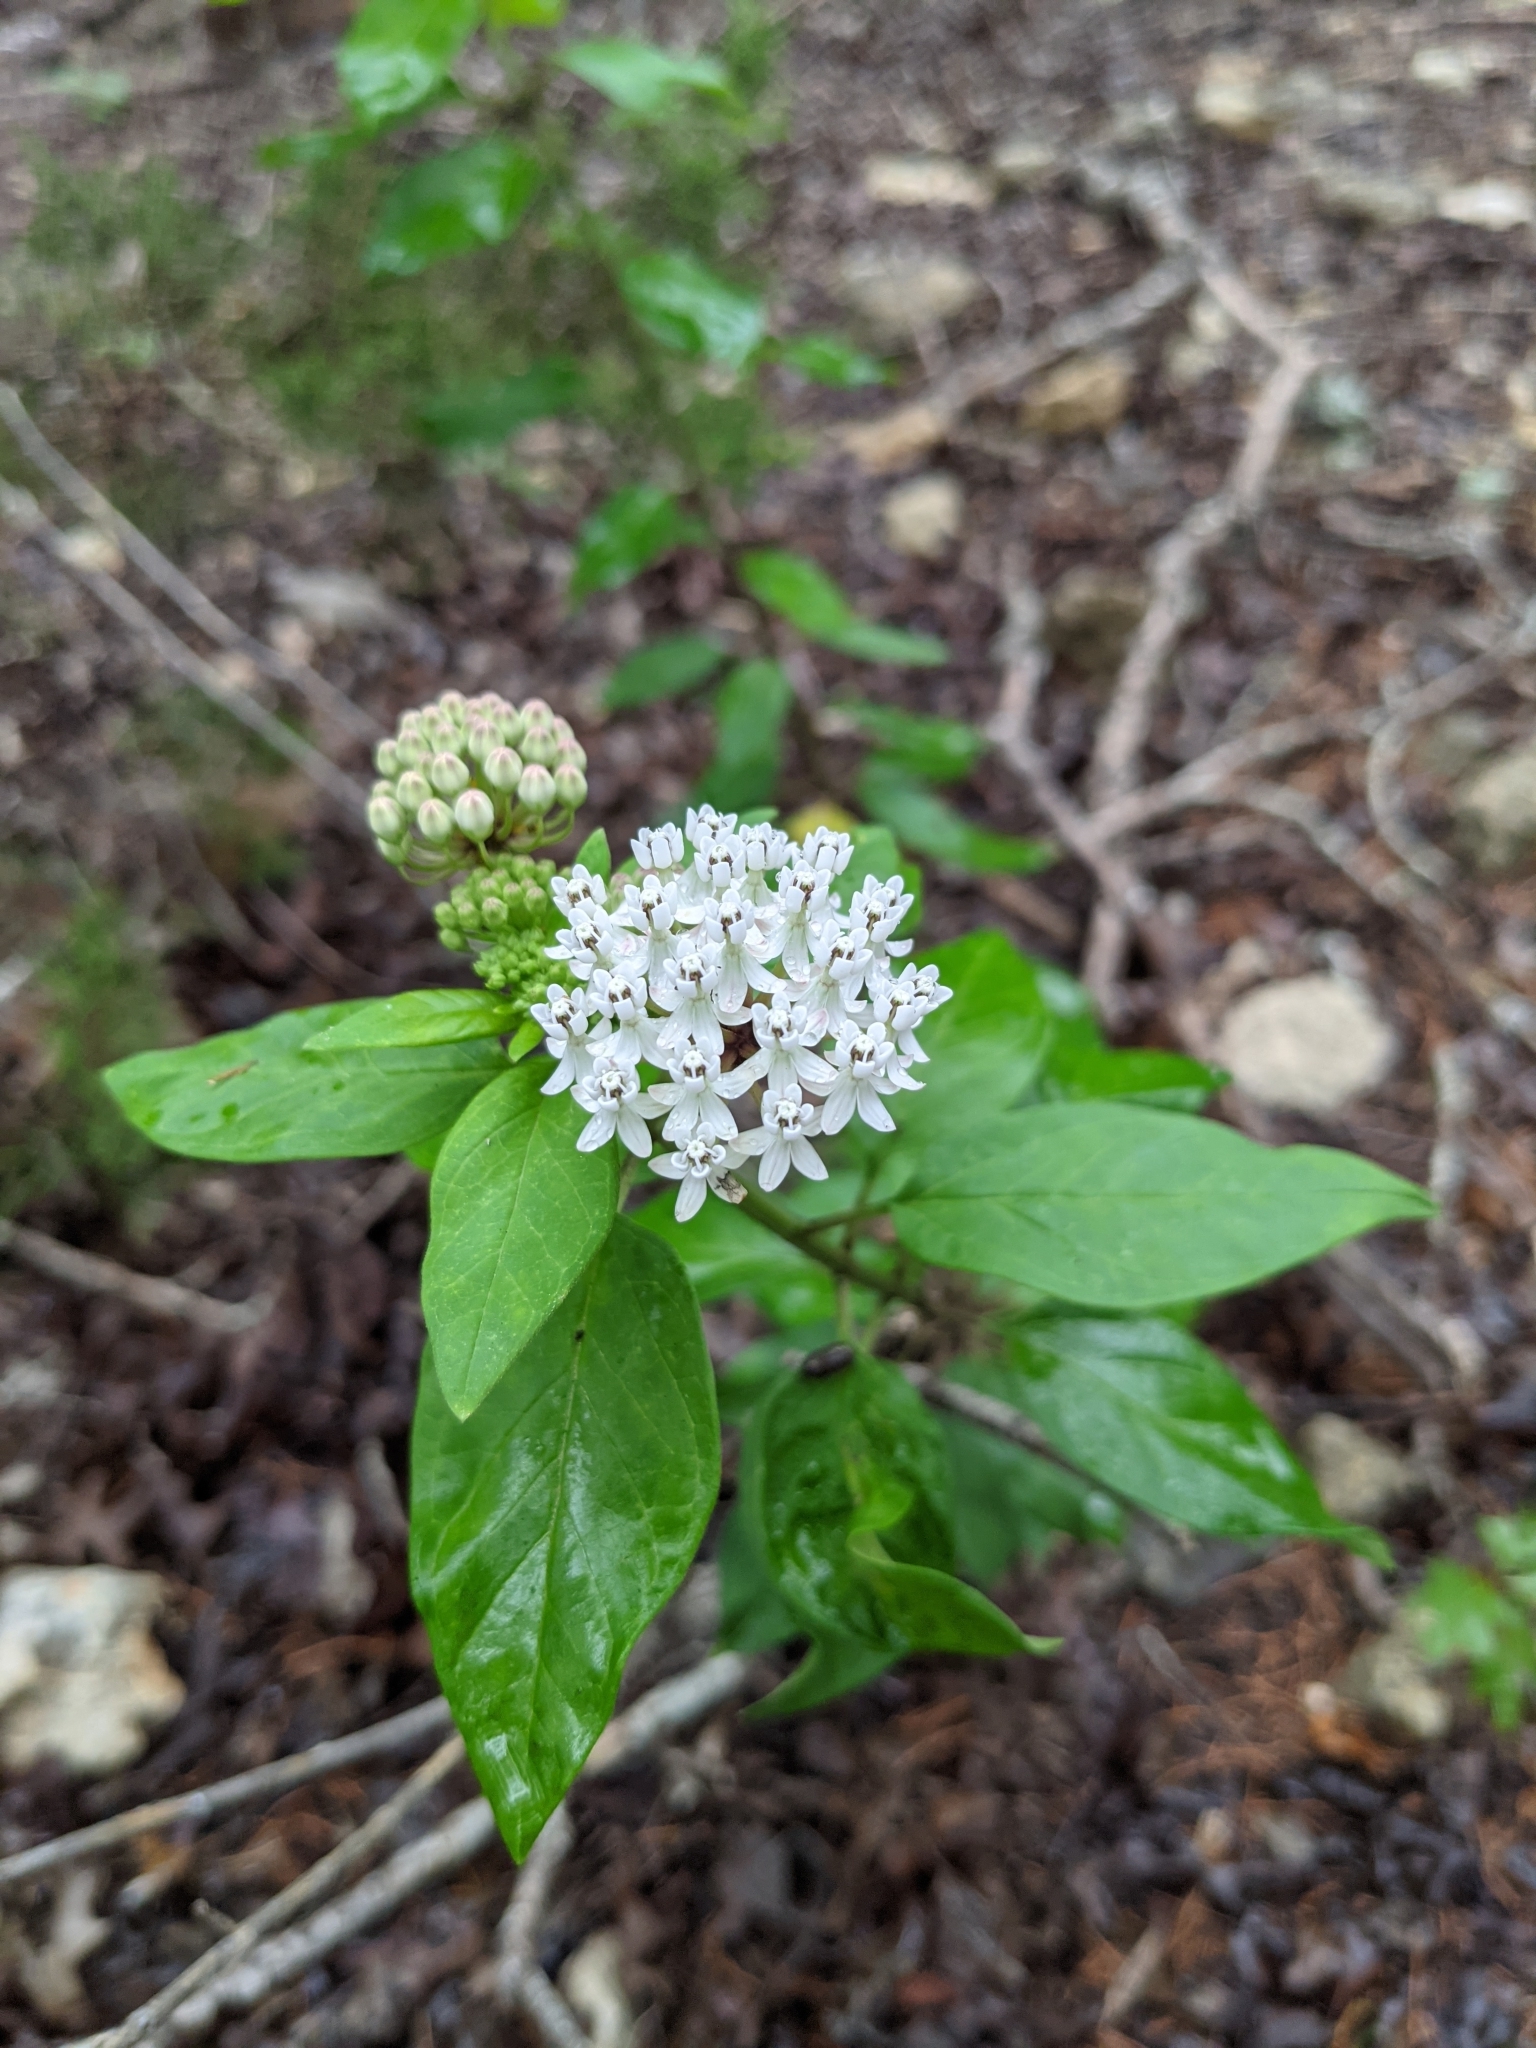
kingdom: Plantae
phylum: Tracheophyta
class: Magnoliopsida
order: Gentianales
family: Apocynaceae
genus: Asclepias
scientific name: Asclepias texana
